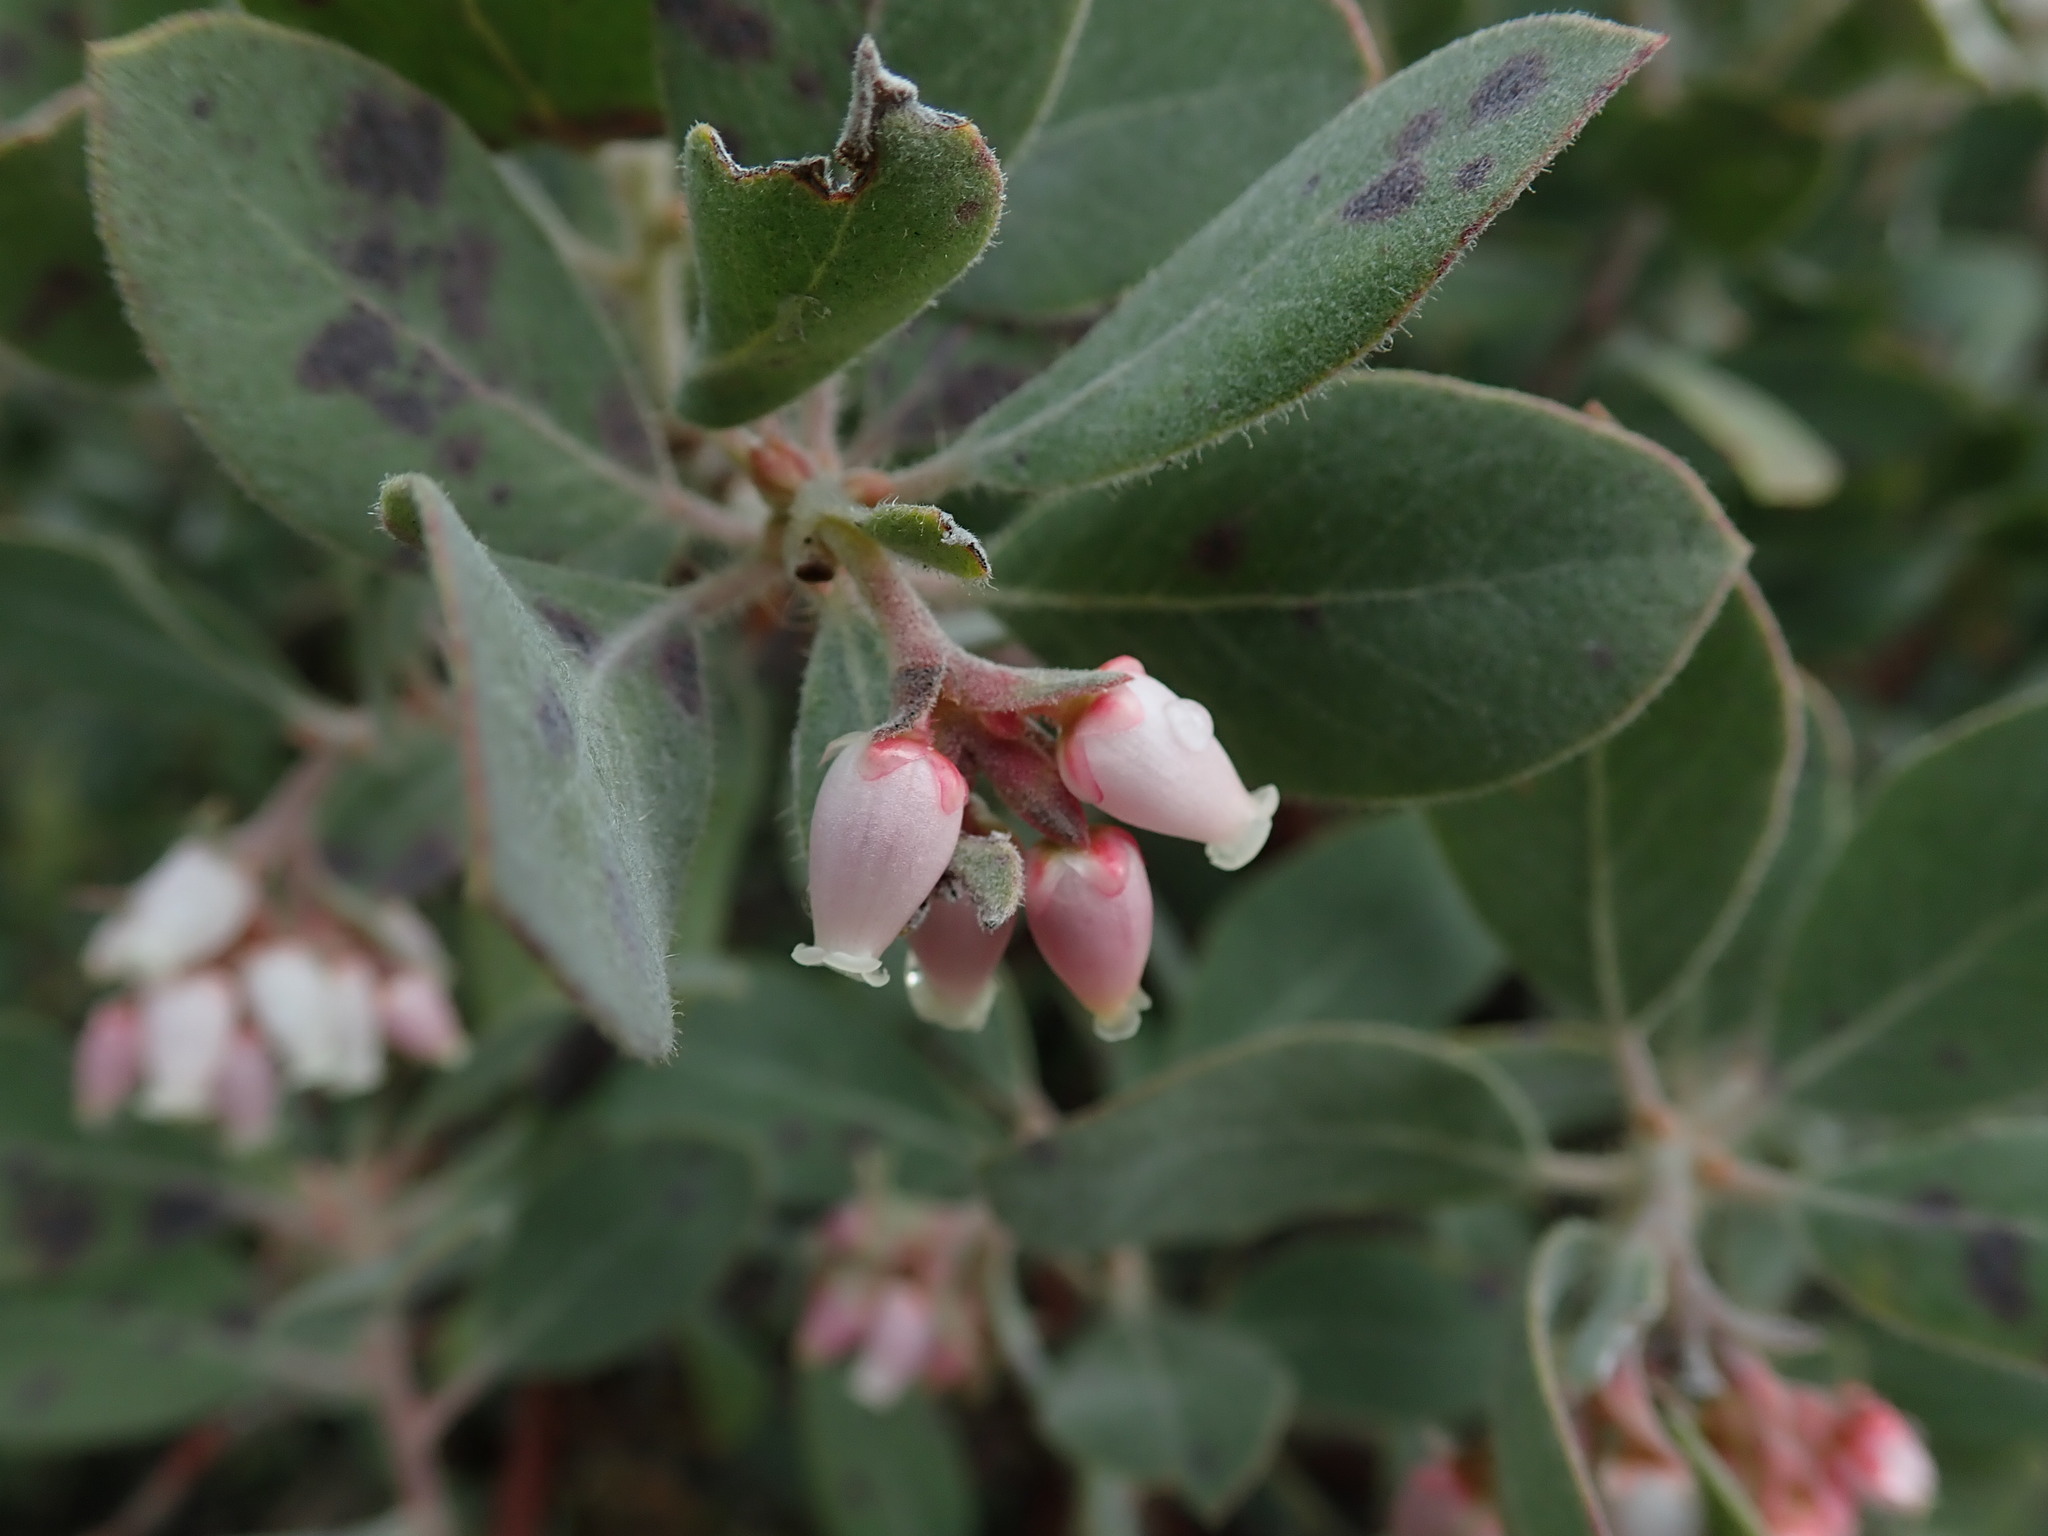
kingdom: Plantae
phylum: Tracheophyta
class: Magnoliopsida
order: Ericales
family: Ericaceae
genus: Arctostaphylos
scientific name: Arctostaphylos columbiana
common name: Bristly bearberry
